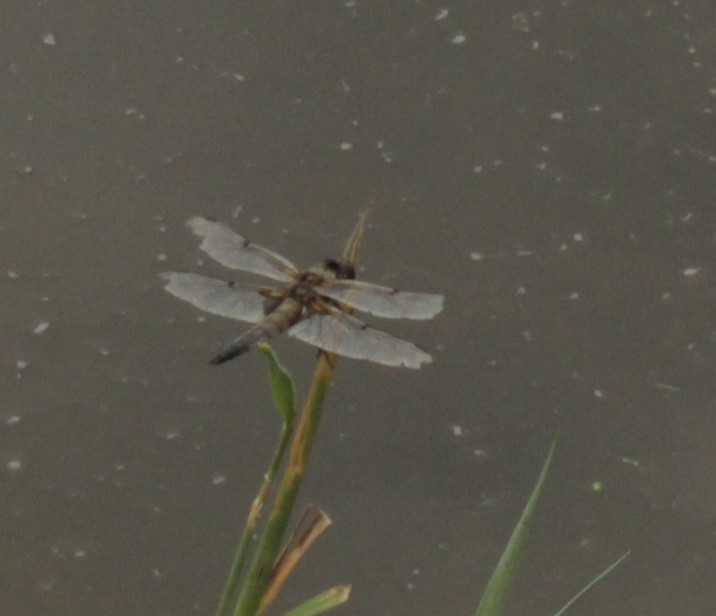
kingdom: Animalia
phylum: Arthropoda
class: Insecta
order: Odonata
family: Libellulidae
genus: Libellula
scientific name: Libellula quadrimaculata
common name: Four-spotted chaser
